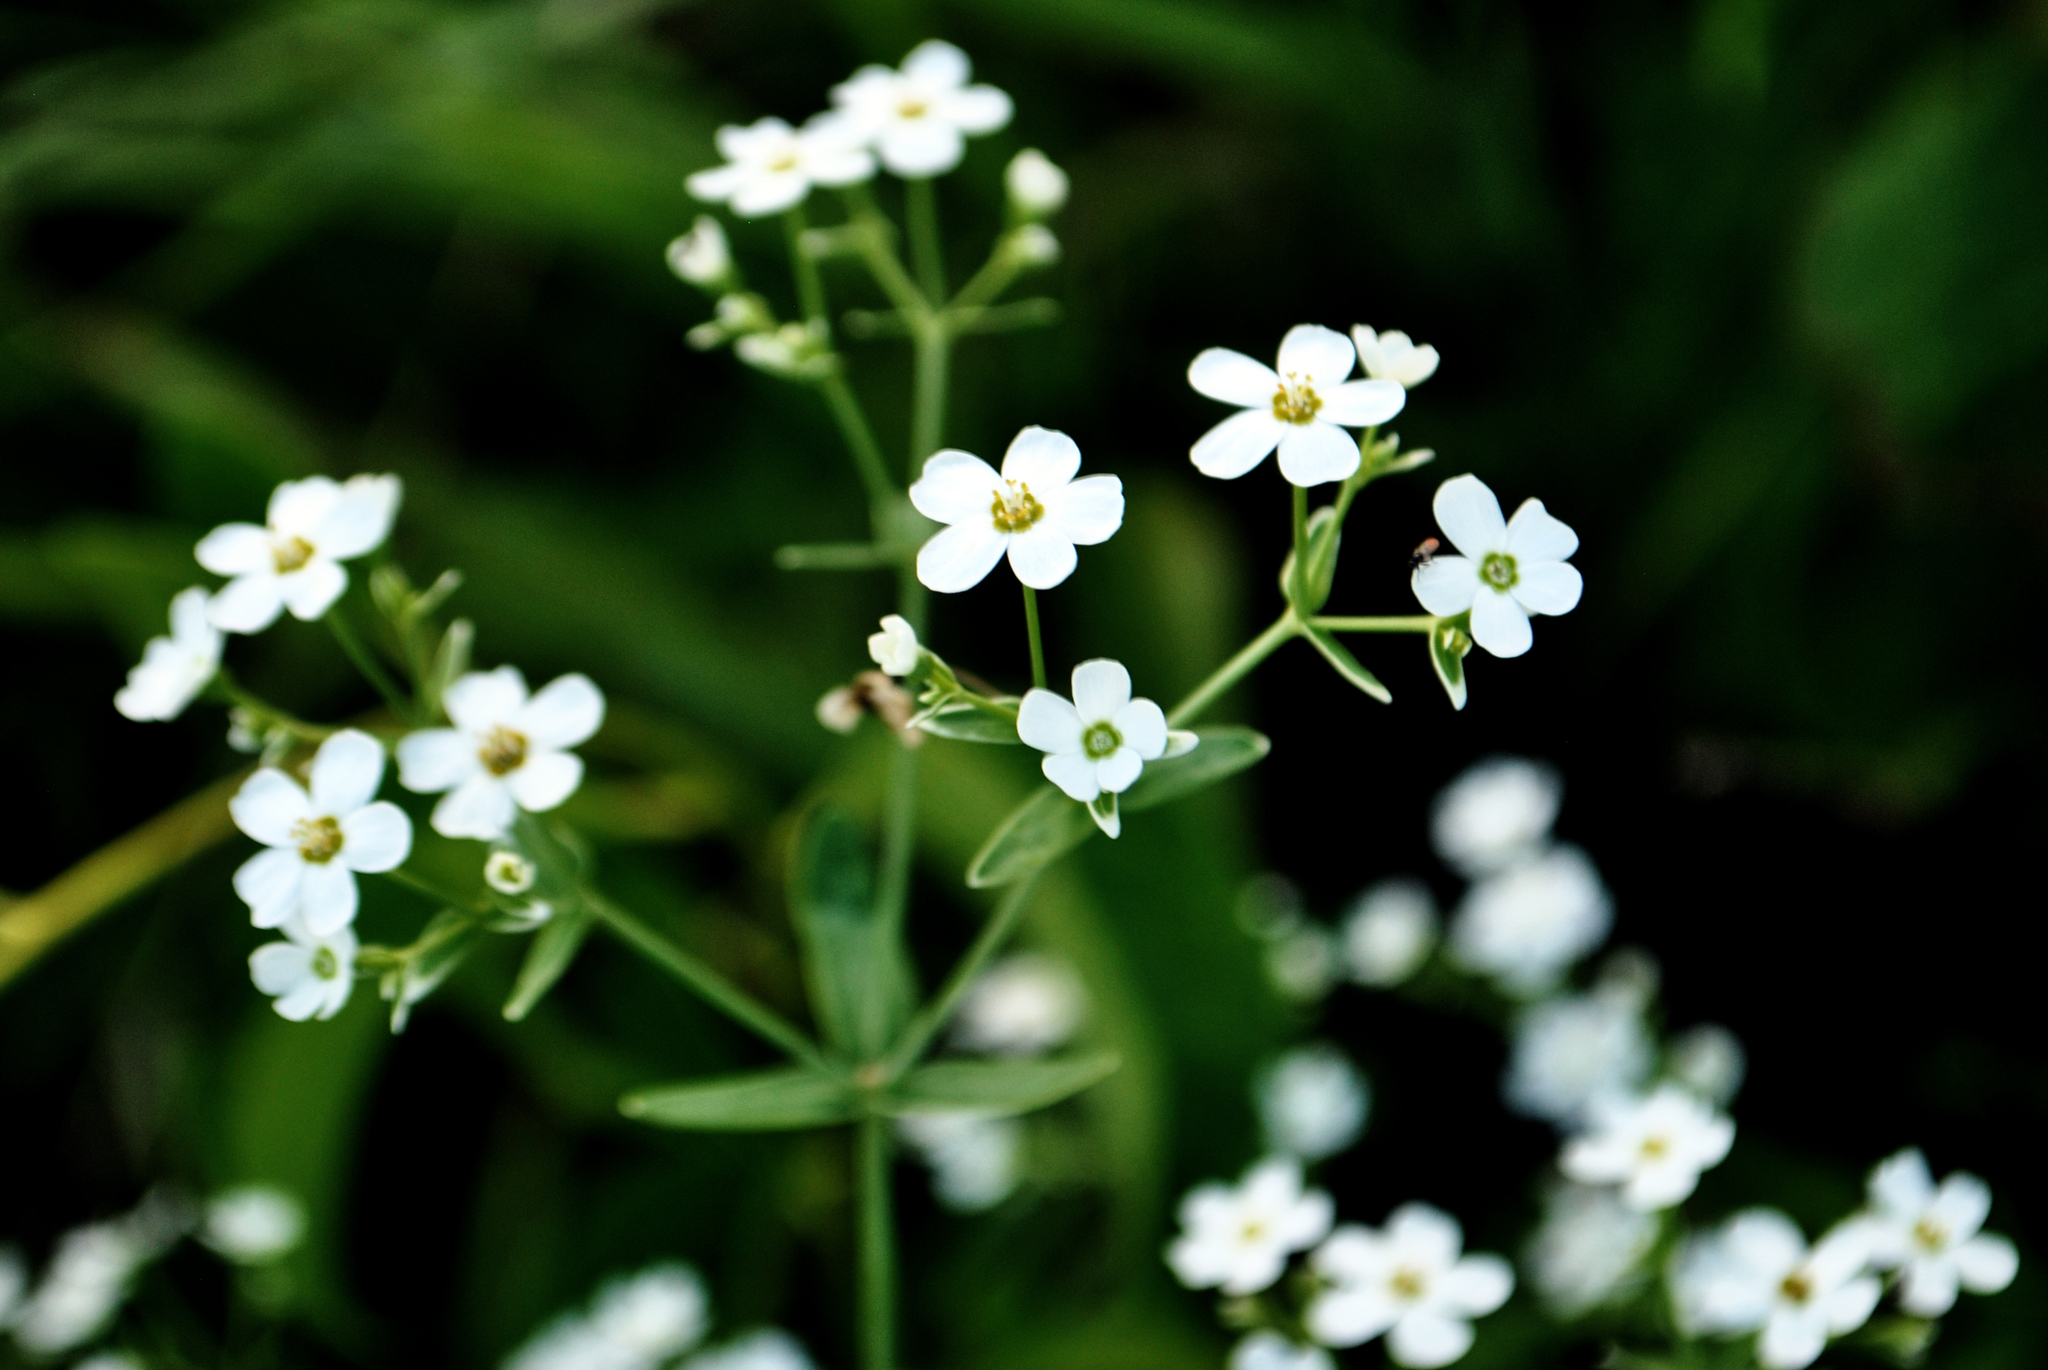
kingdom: Plantae
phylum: Tracheophyta
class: Magnoliopsida
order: Malpighiales
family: Euphorbiaceae
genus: Euphorbia
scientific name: Euphorbia corollata
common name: Flowering spurge
